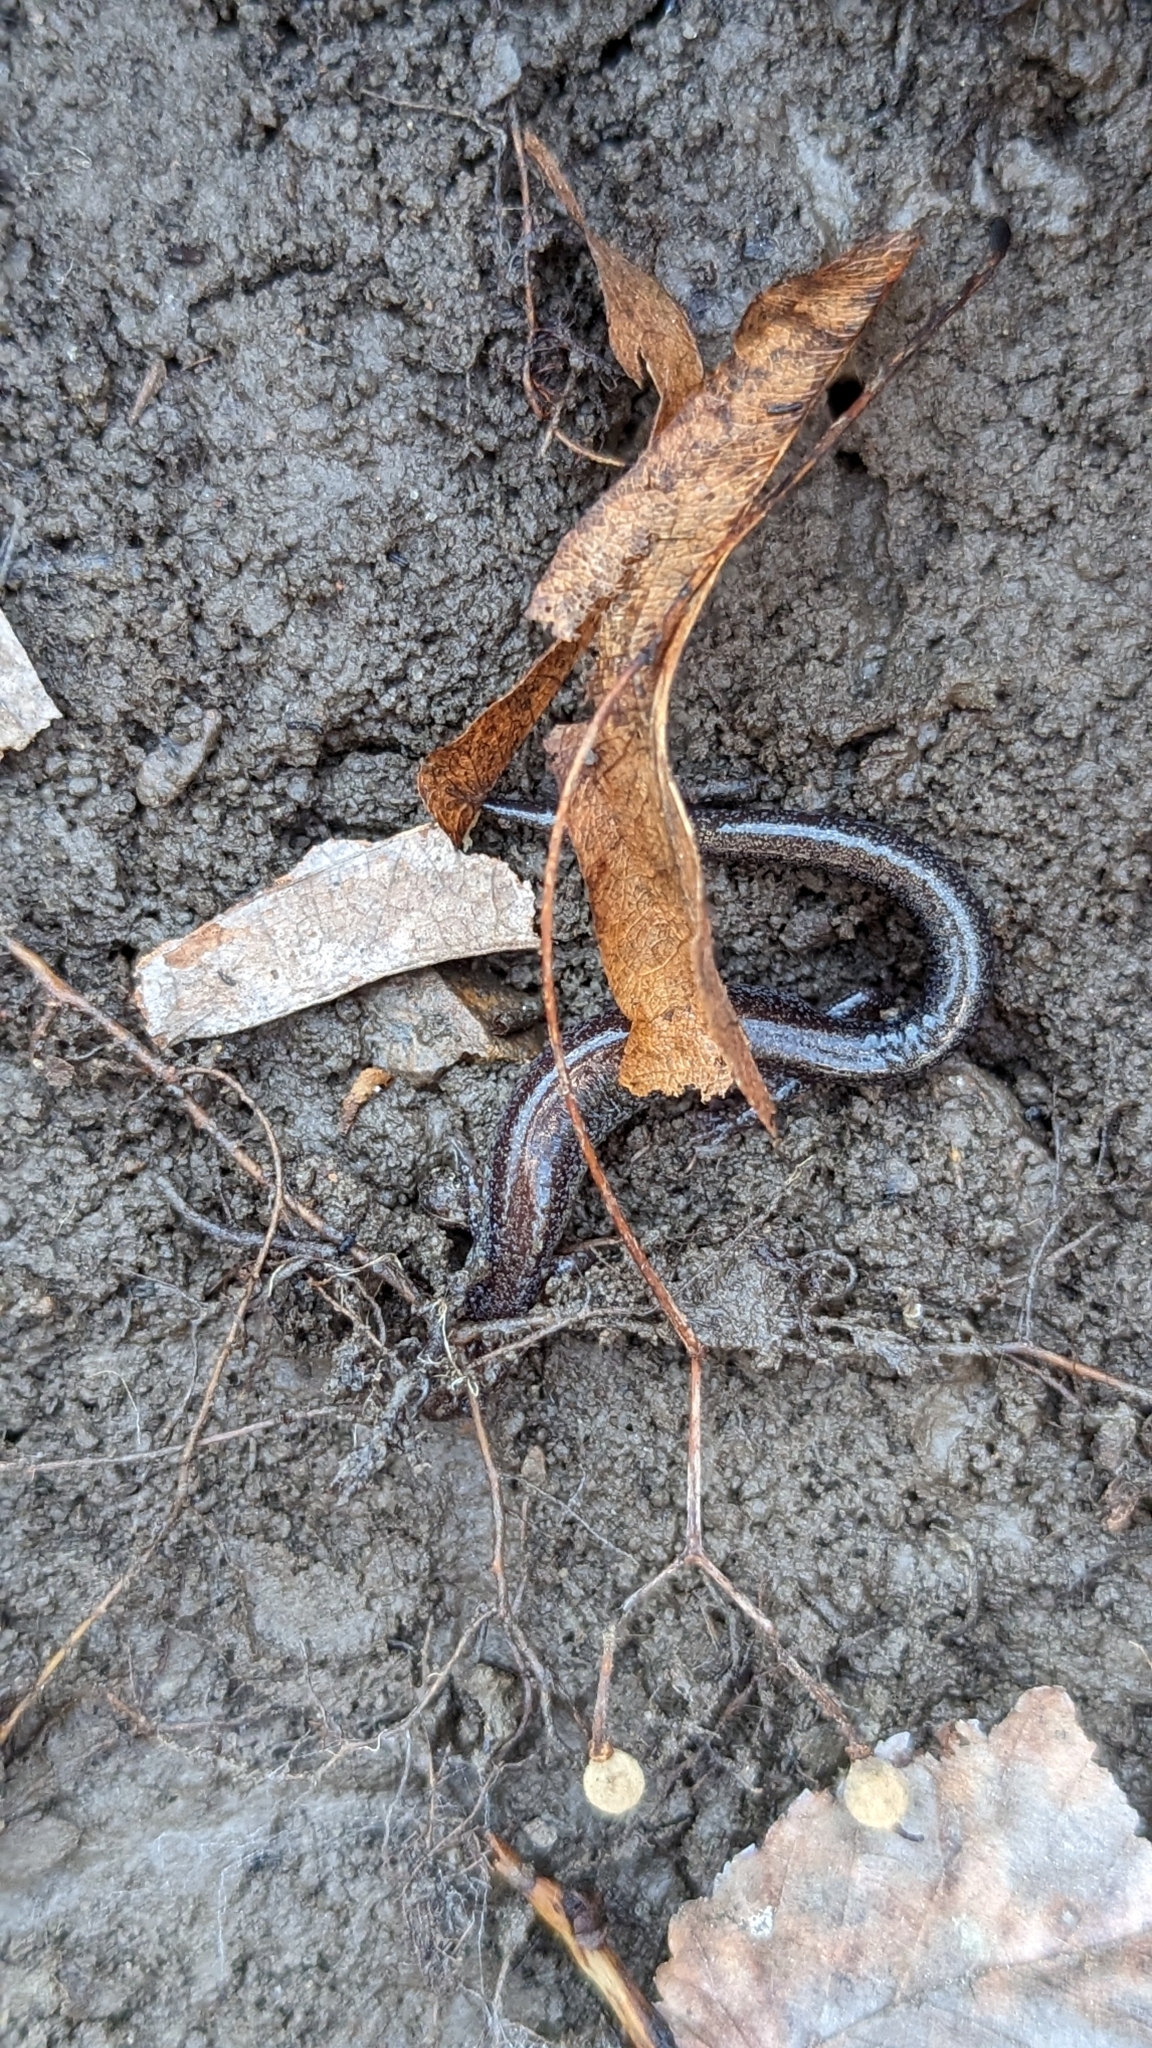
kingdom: Animalia
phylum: Chordata
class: Amphibia
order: Caudata
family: Plethodontidae
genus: Plethodon
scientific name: Plethodon cinereus
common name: Redback salamander
